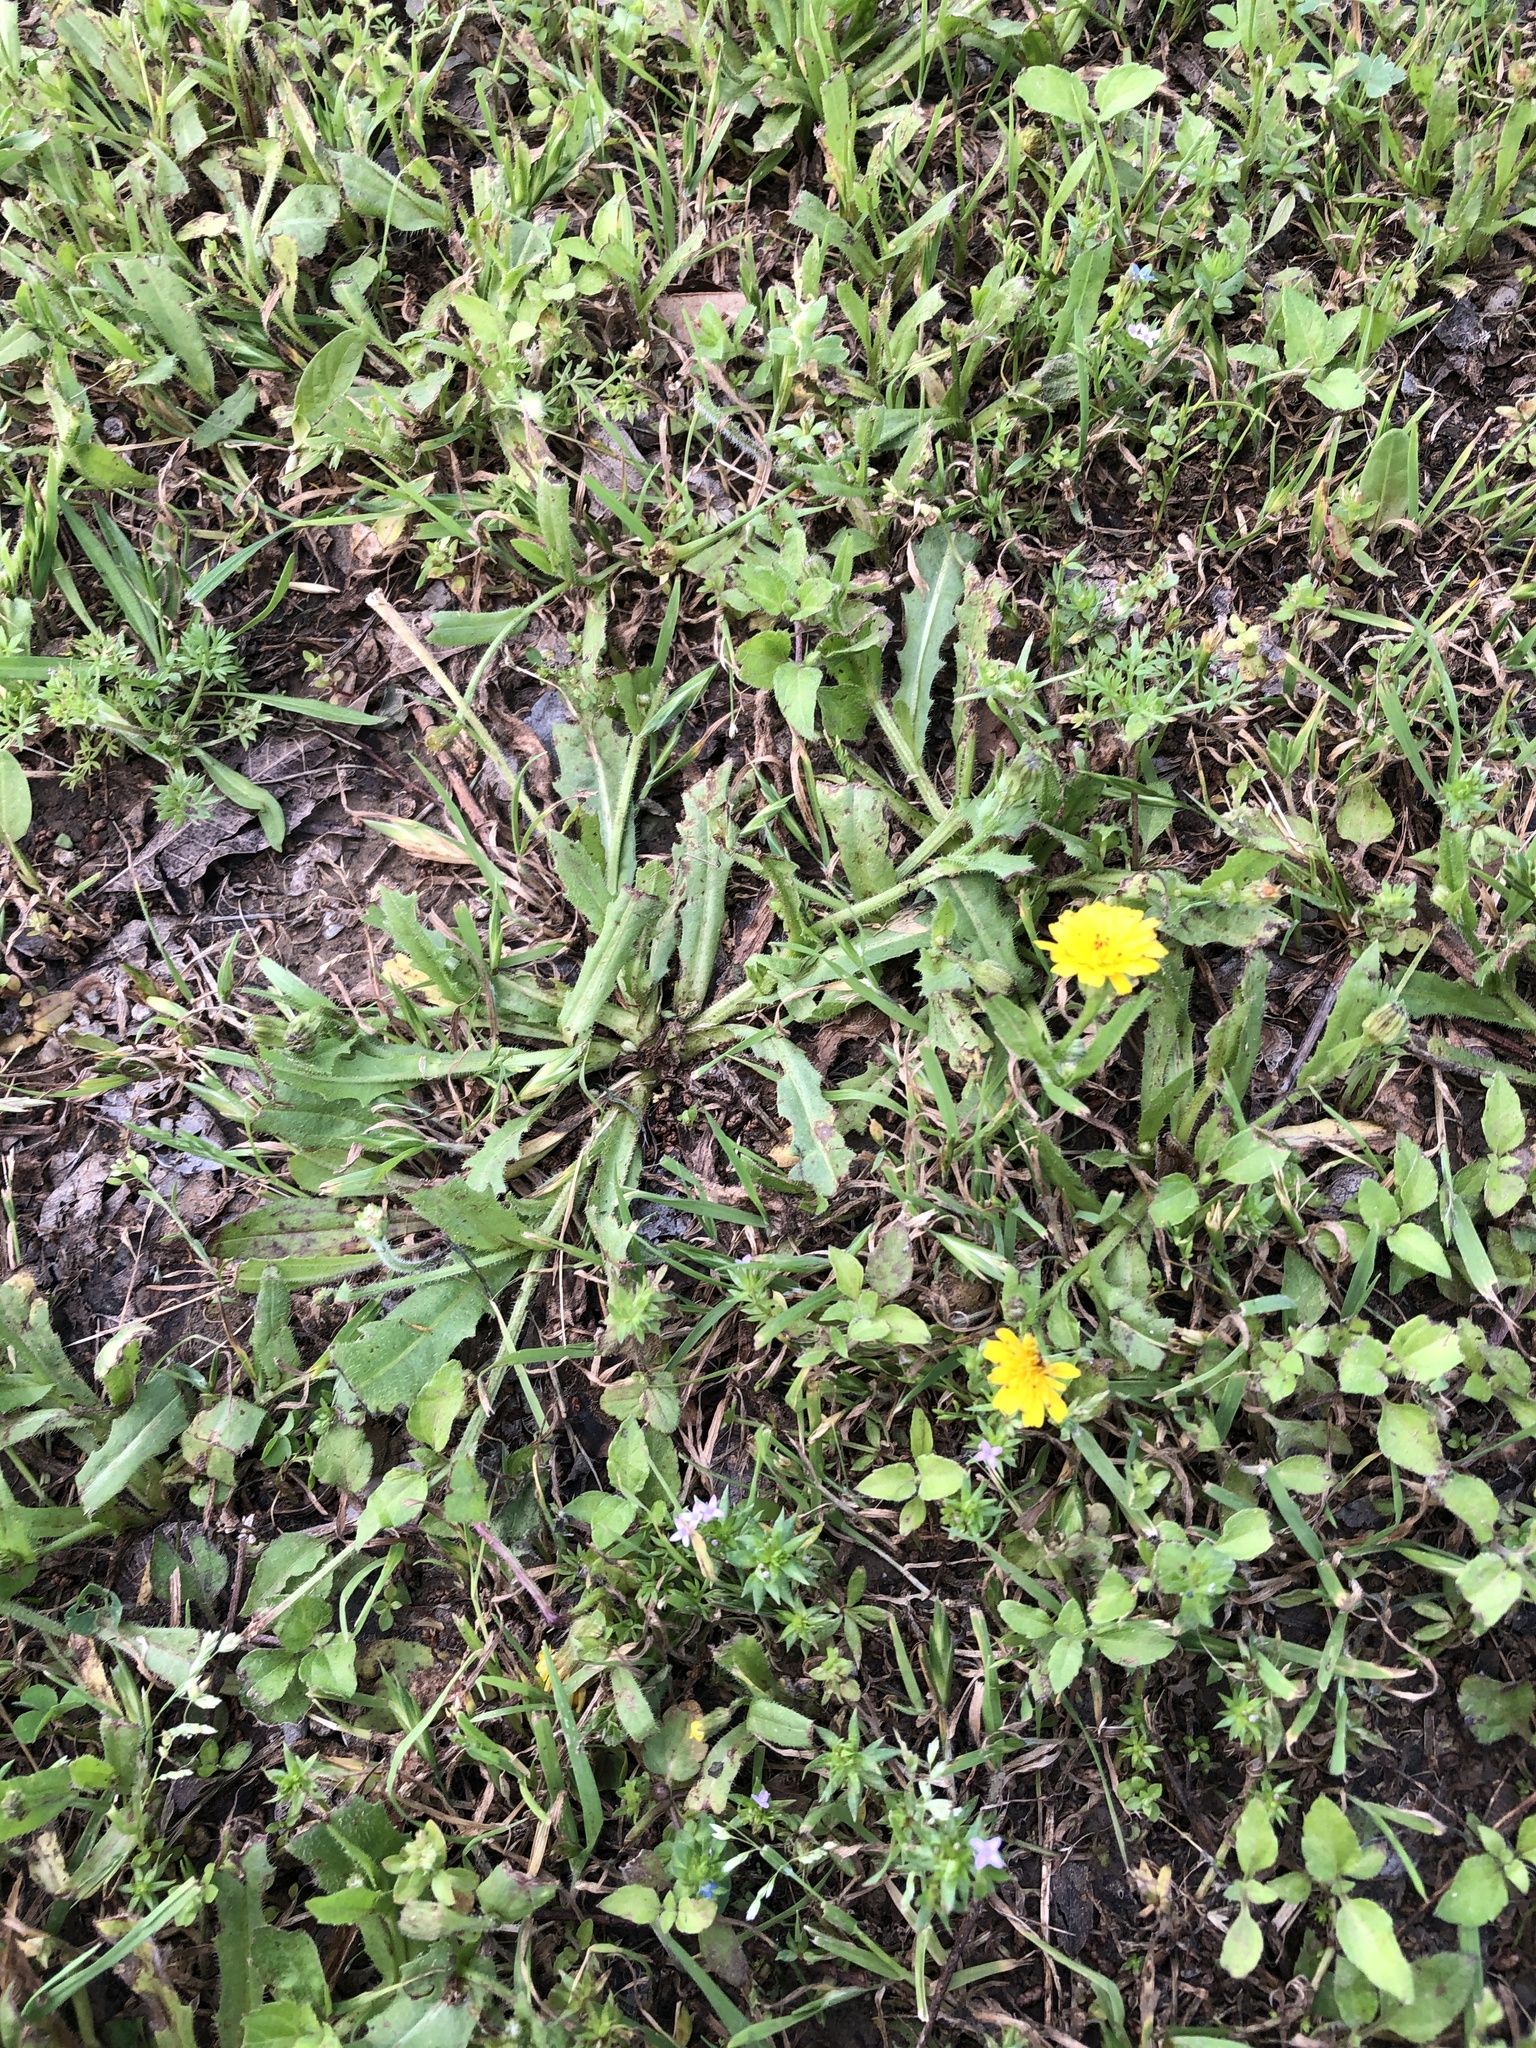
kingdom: Plantae
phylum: Tracheophyta
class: Magnoliopsida
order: Asterales
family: Asteraceae
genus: Hedypnois
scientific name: Hedypnois rhagadioloides
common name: Cretan weed
